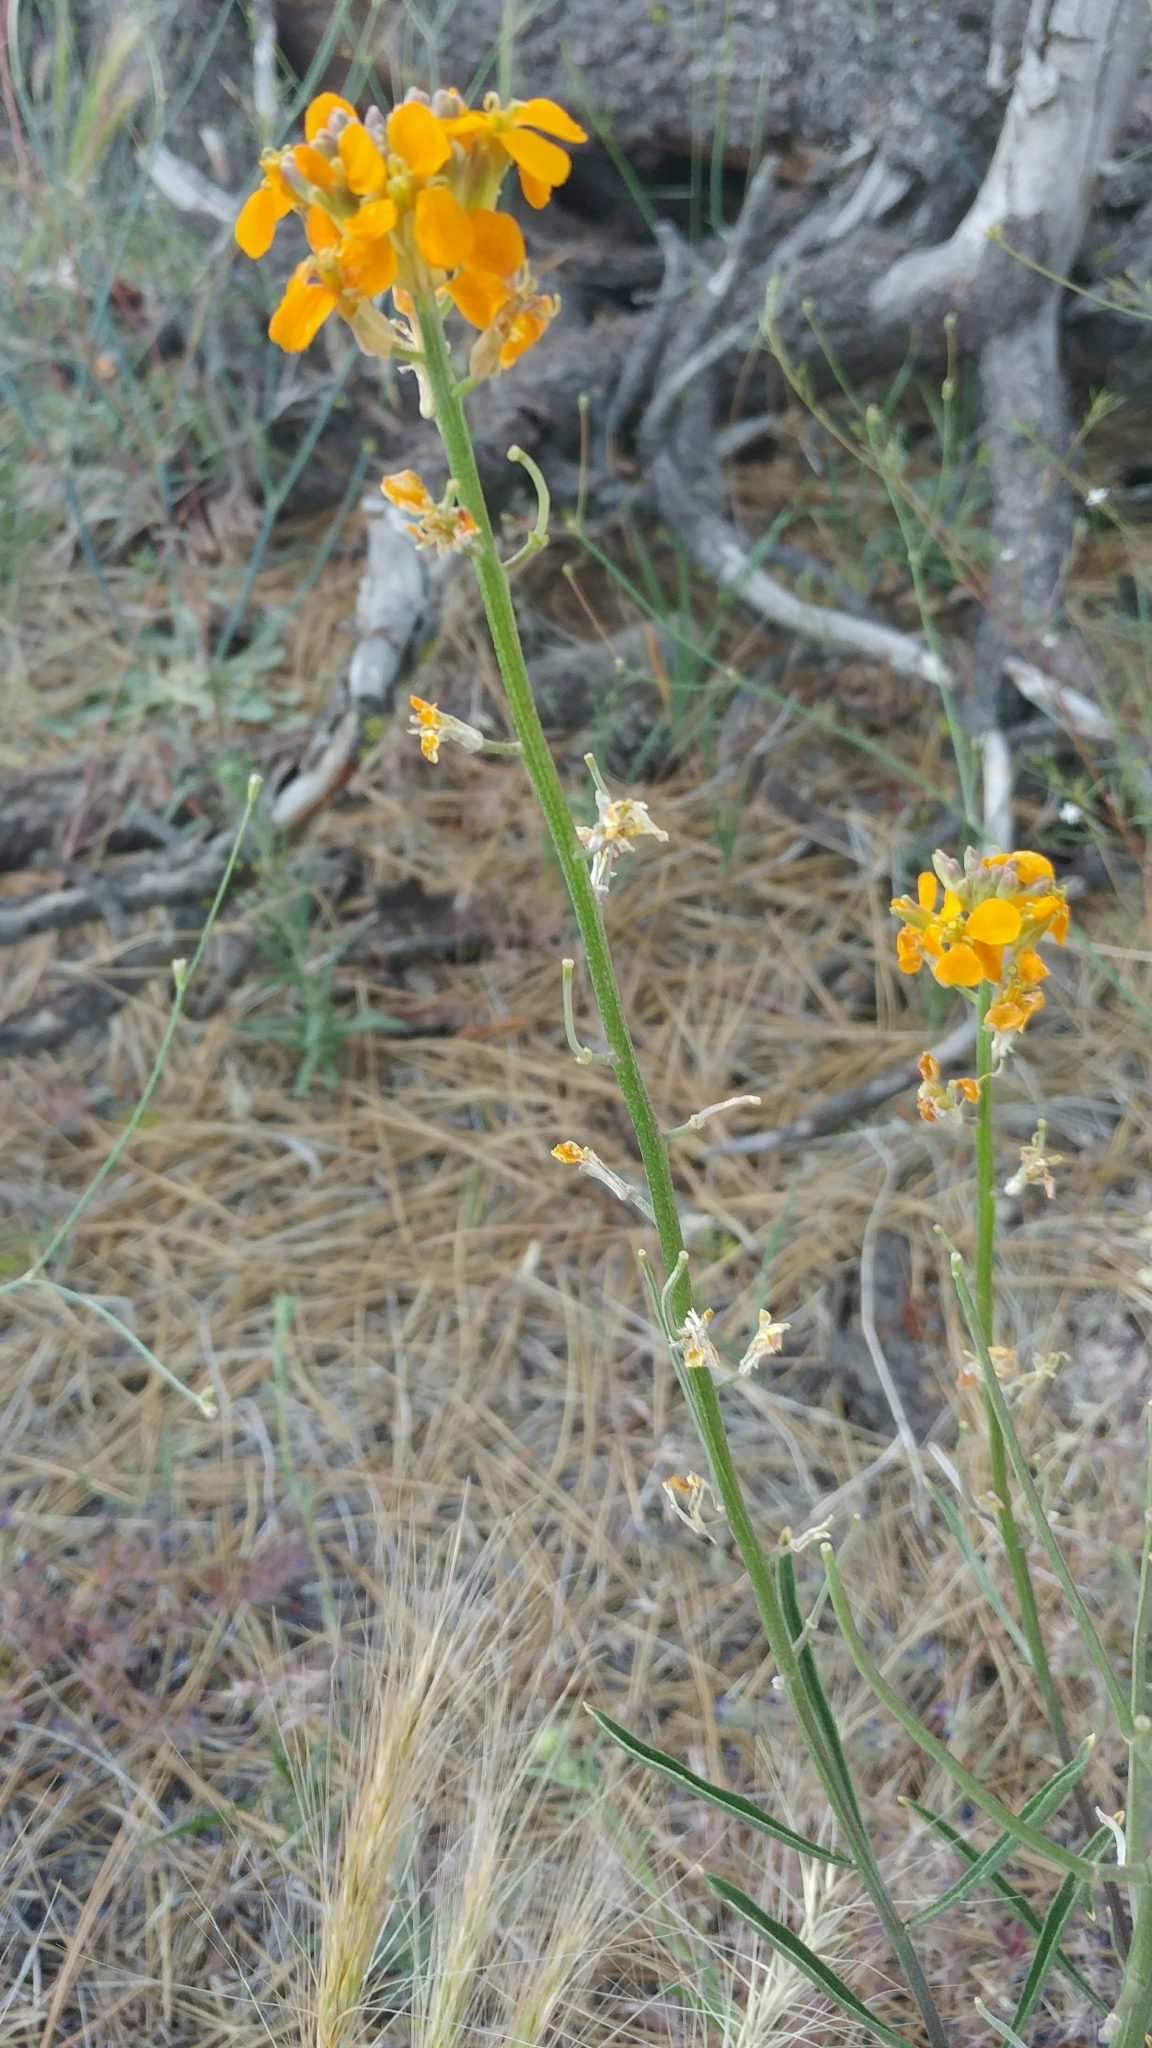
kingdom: Plantae
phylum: Tracheophyta
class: Magnoliopsida
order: Brassicales
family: Brassicaceae
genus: Erysimum
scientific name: Erysimum capitatum
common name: Western wallflower
